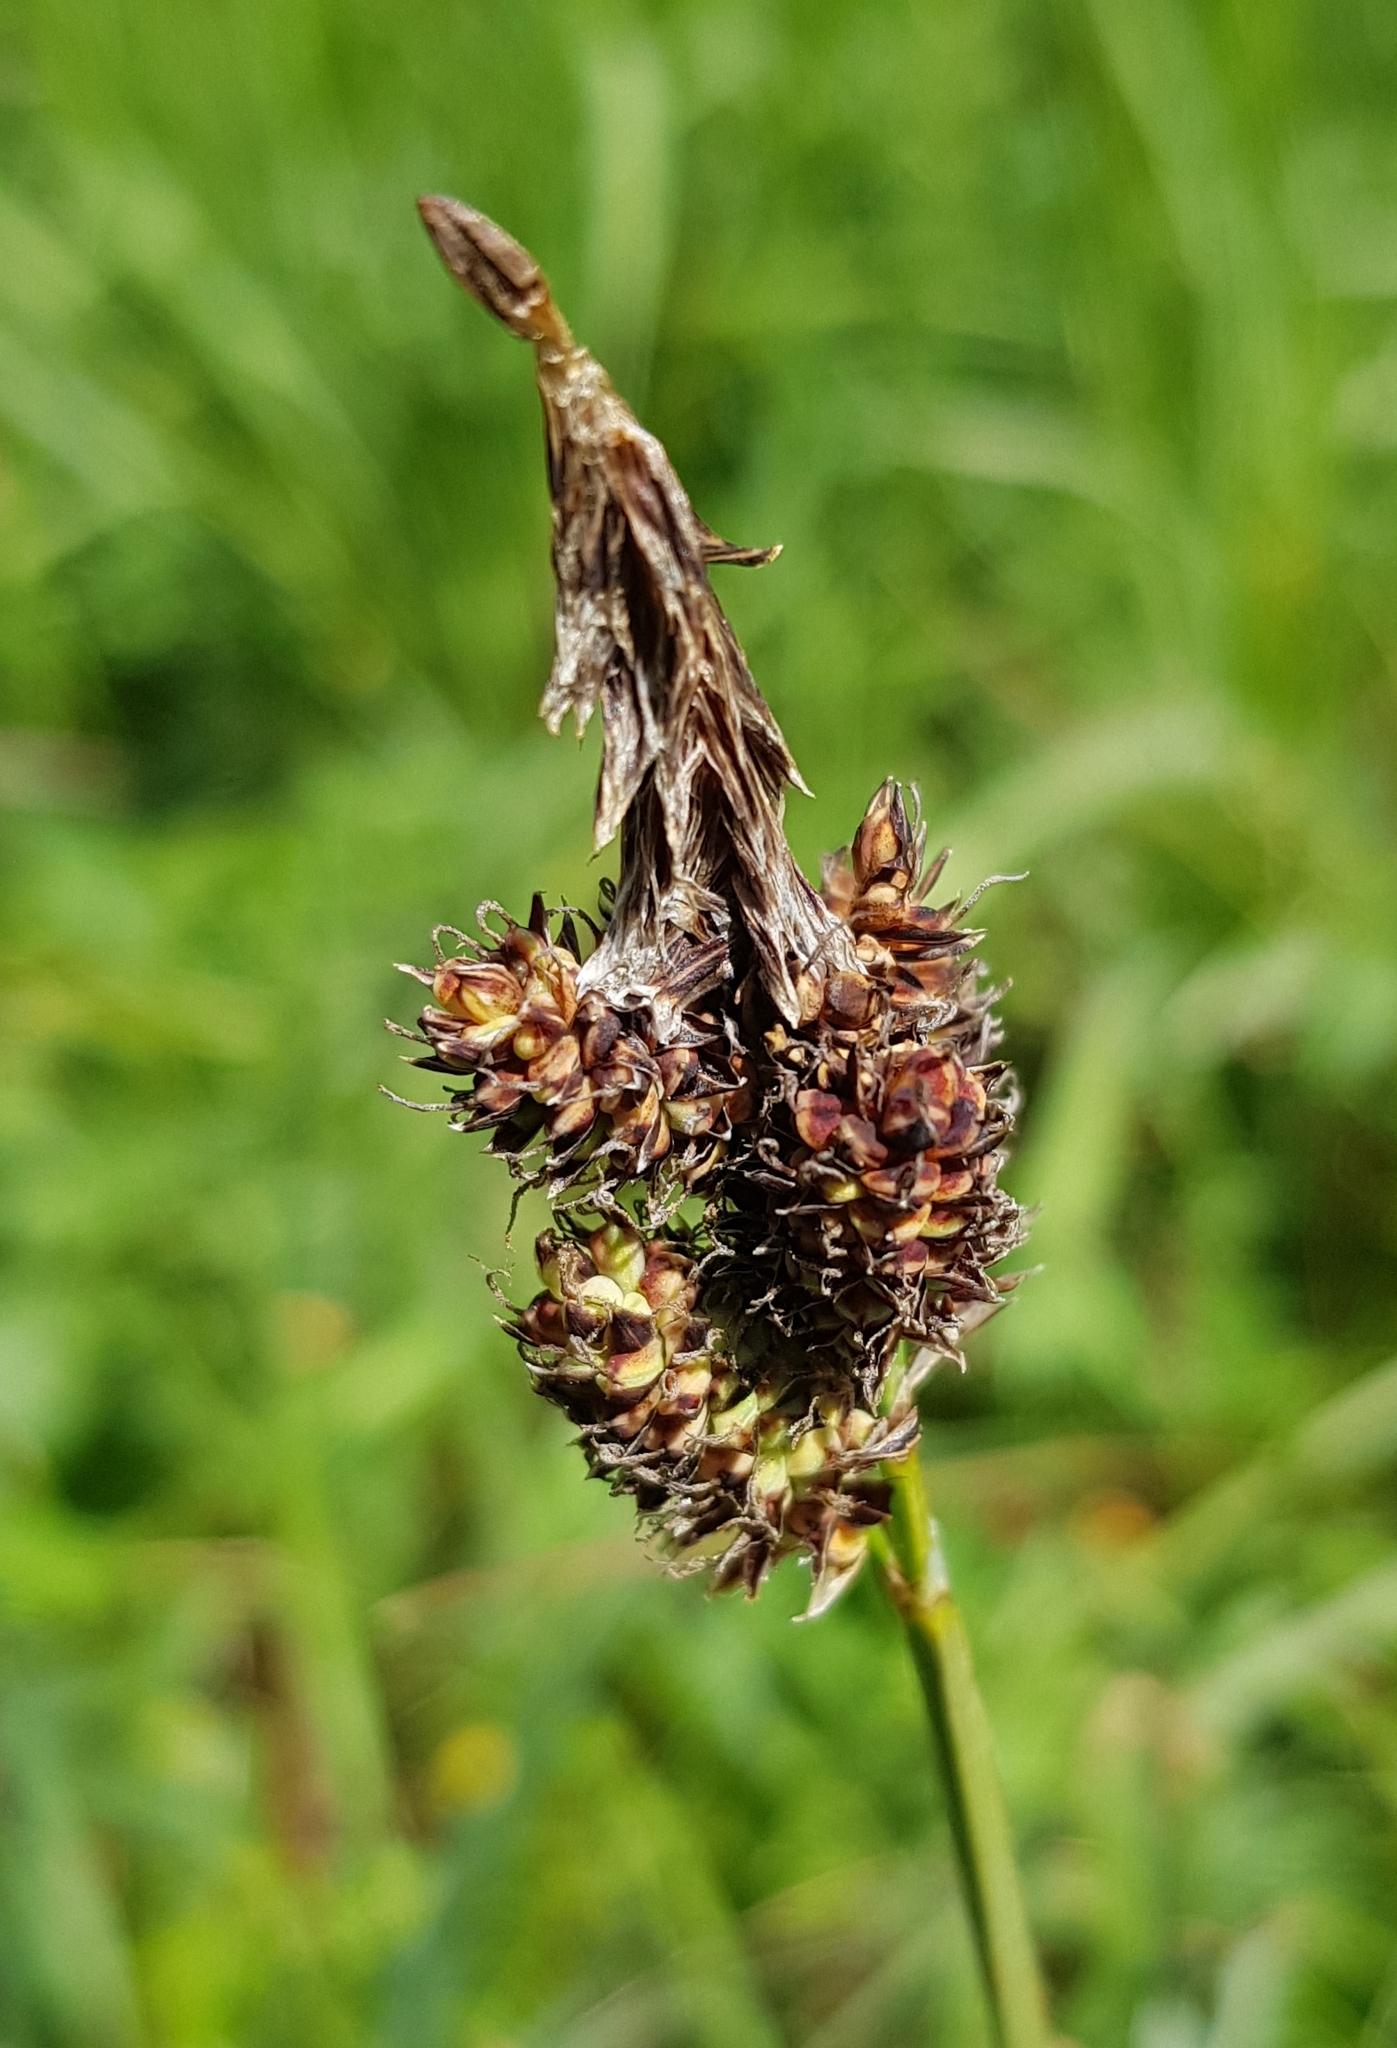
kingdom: Plantae
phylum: Tracheophyta
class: Liliopsida
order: Poales
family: Cyperaceae
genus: Carex
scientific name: Carex aterrima
